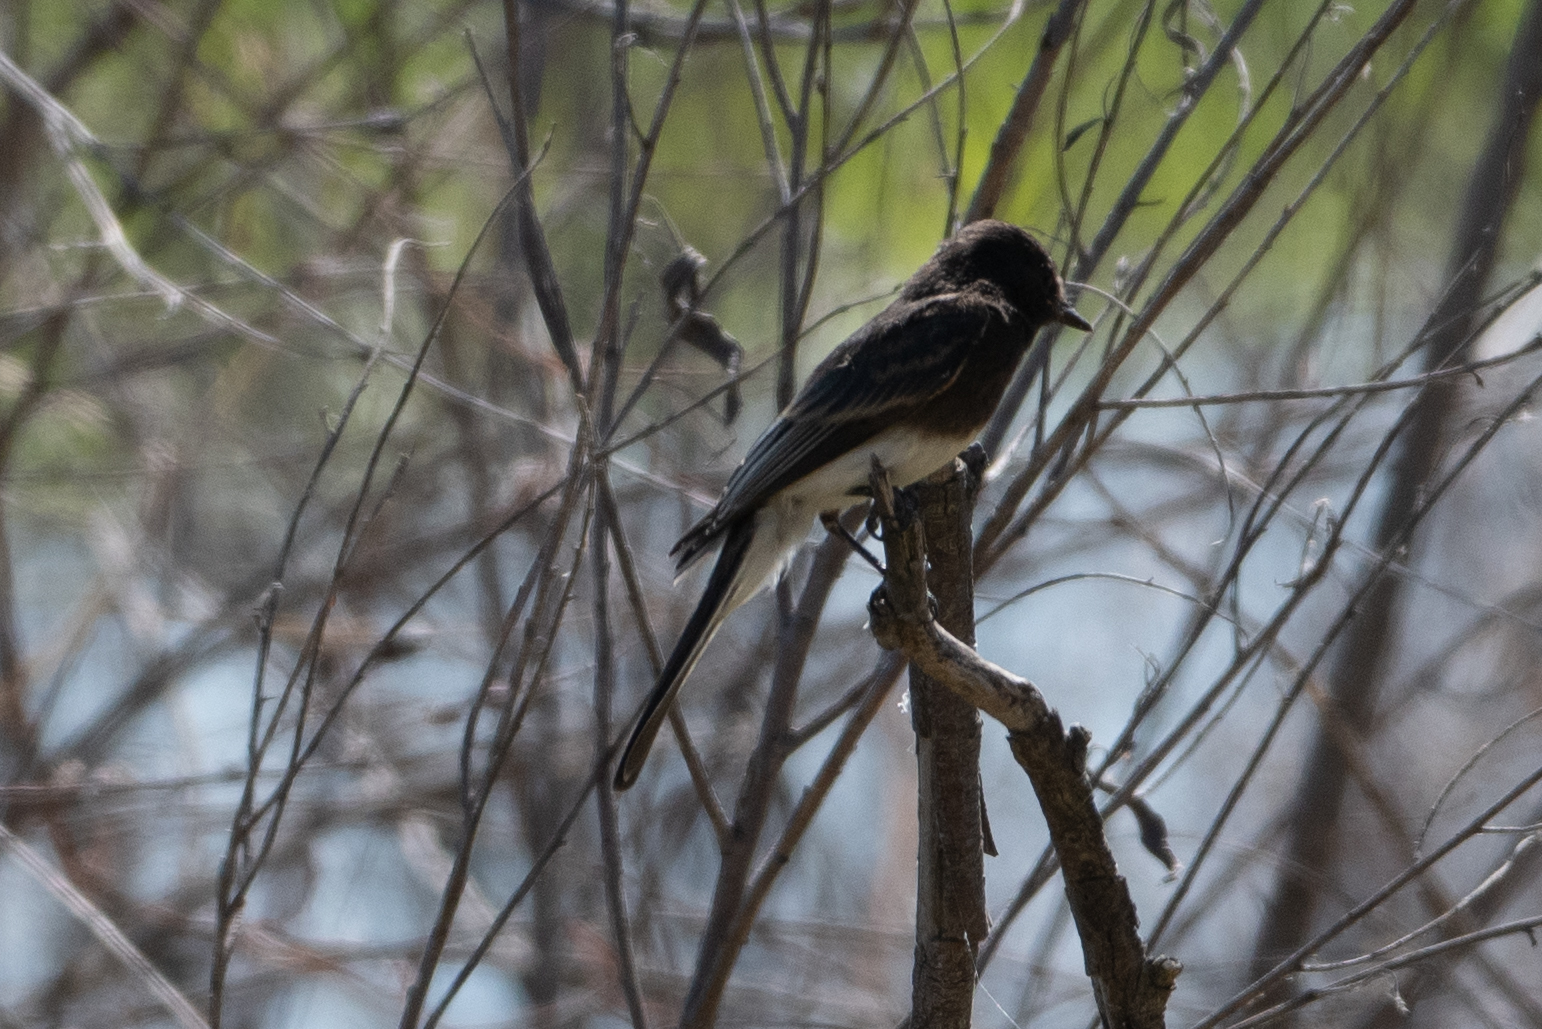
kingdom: Animalia
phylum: Chordata
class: Aves
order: Passeriformes
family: Tyrannidae
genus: Sayornis
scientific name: Sayornis nigricans
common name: Black phoebe
